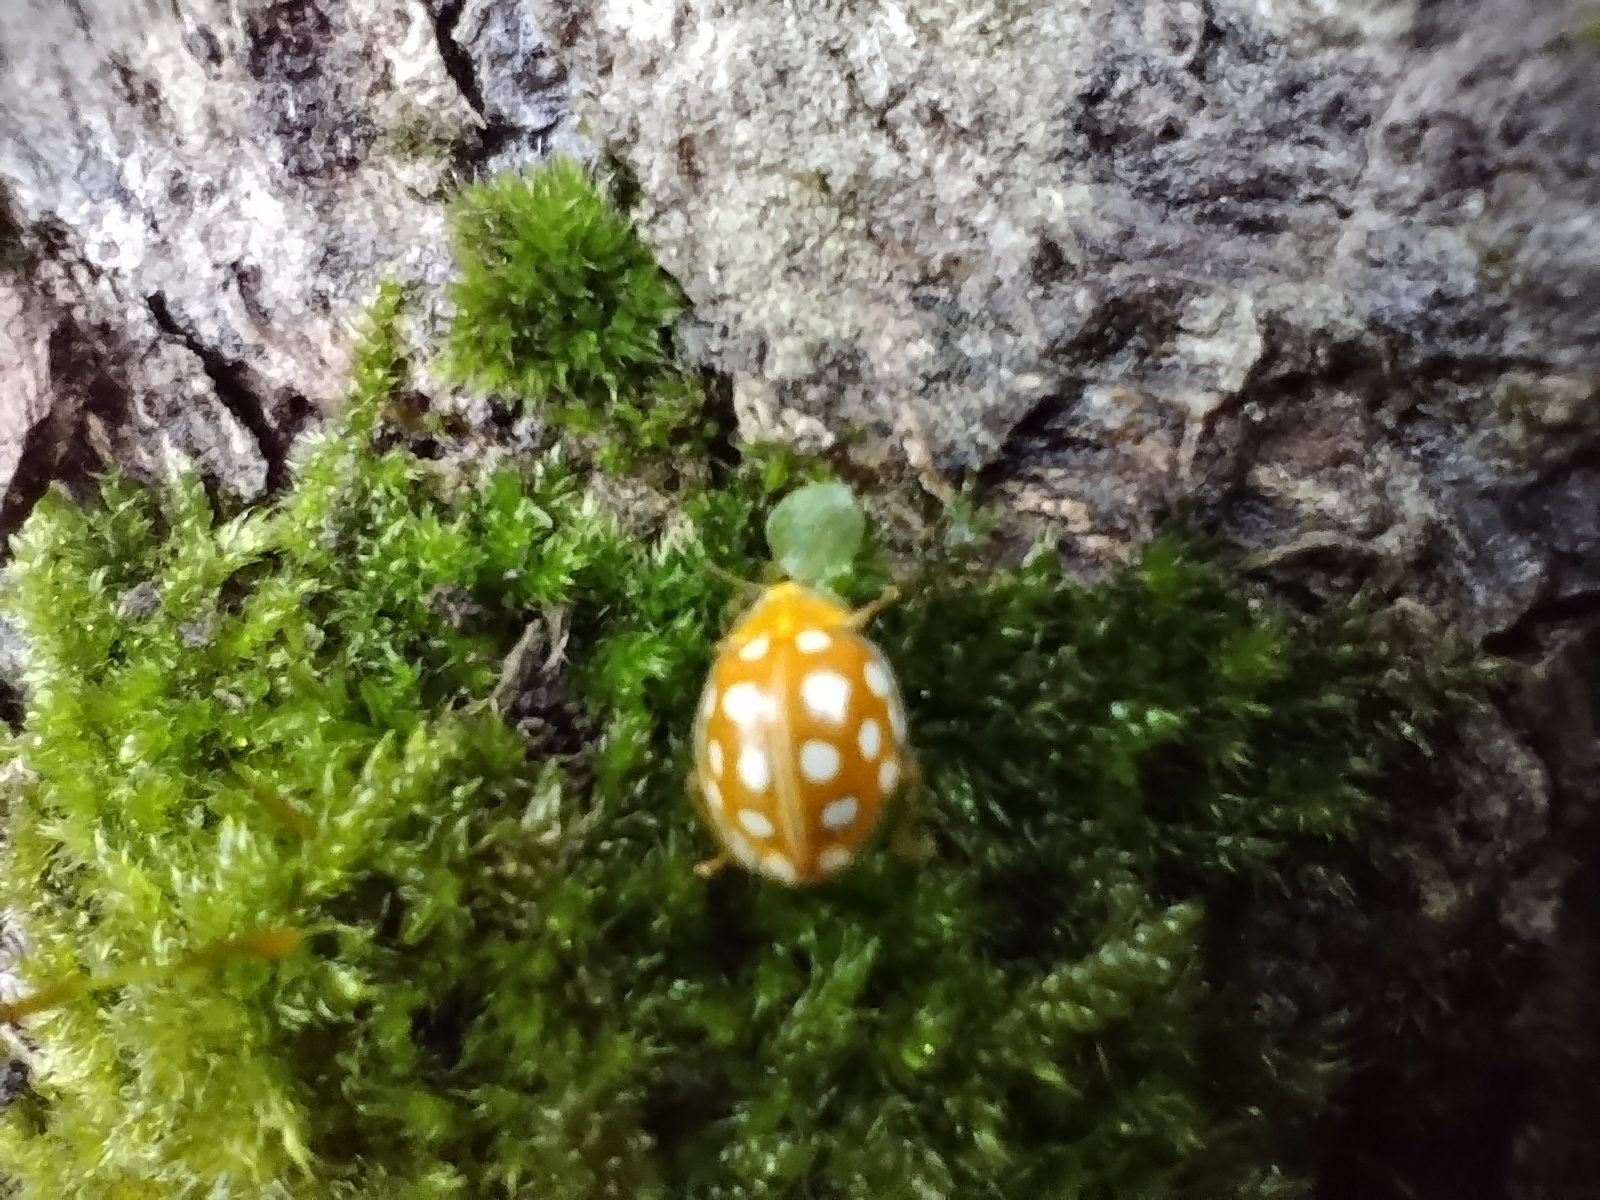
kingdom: Animalia
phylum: Arthropoda
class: Insecta
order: Coleoptera
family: Coccinellidae
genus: Halyzia
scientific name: Halyzia sedecimguttata
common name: Orange ladybird
